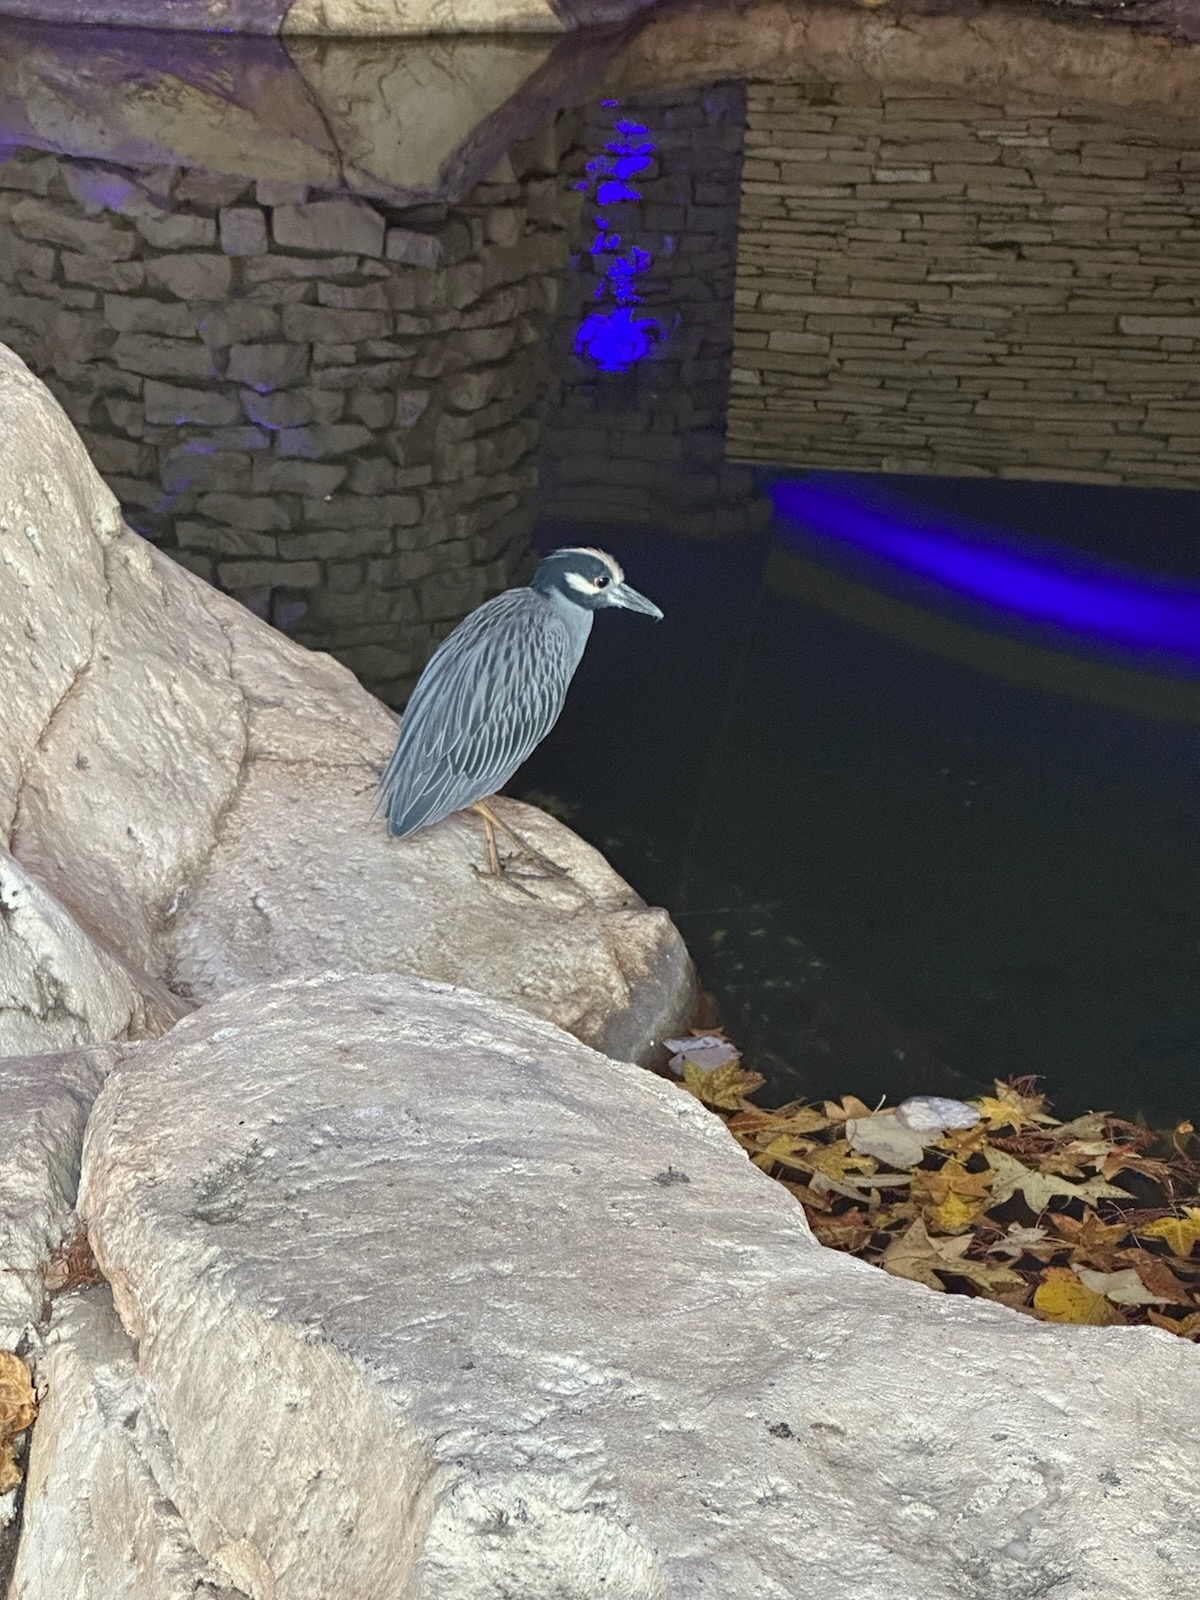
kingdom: Animalia
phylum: Chordata
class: Aves
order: Pelecaniformes
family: Ardeidae
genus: Nyctanassa
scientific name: Nyctanassa violacea
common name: Yellow-crowned night heron
